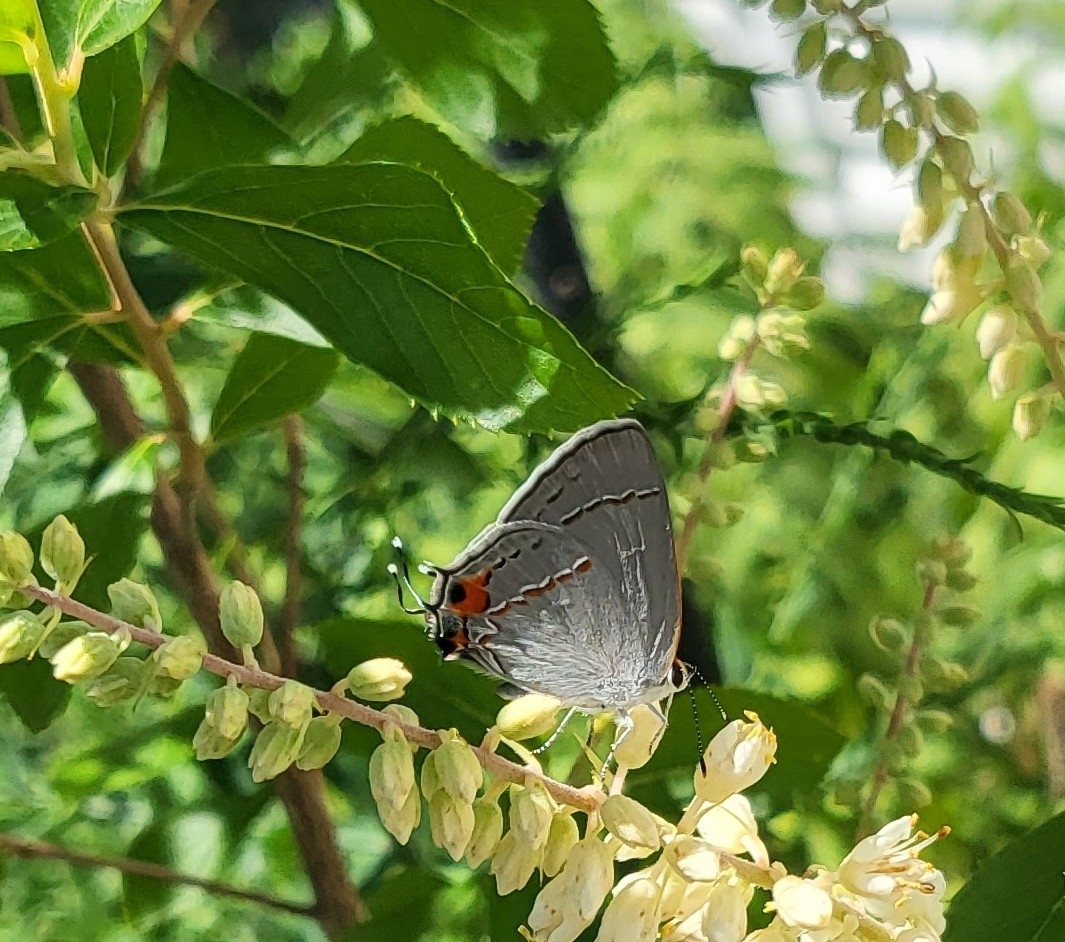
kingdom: Animalia
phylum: Arthropoda
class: Insecta
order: Lepidoptera
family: Lycaenidae
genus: Strymon
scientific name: Strymon melinus
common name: Gray hairstreak
